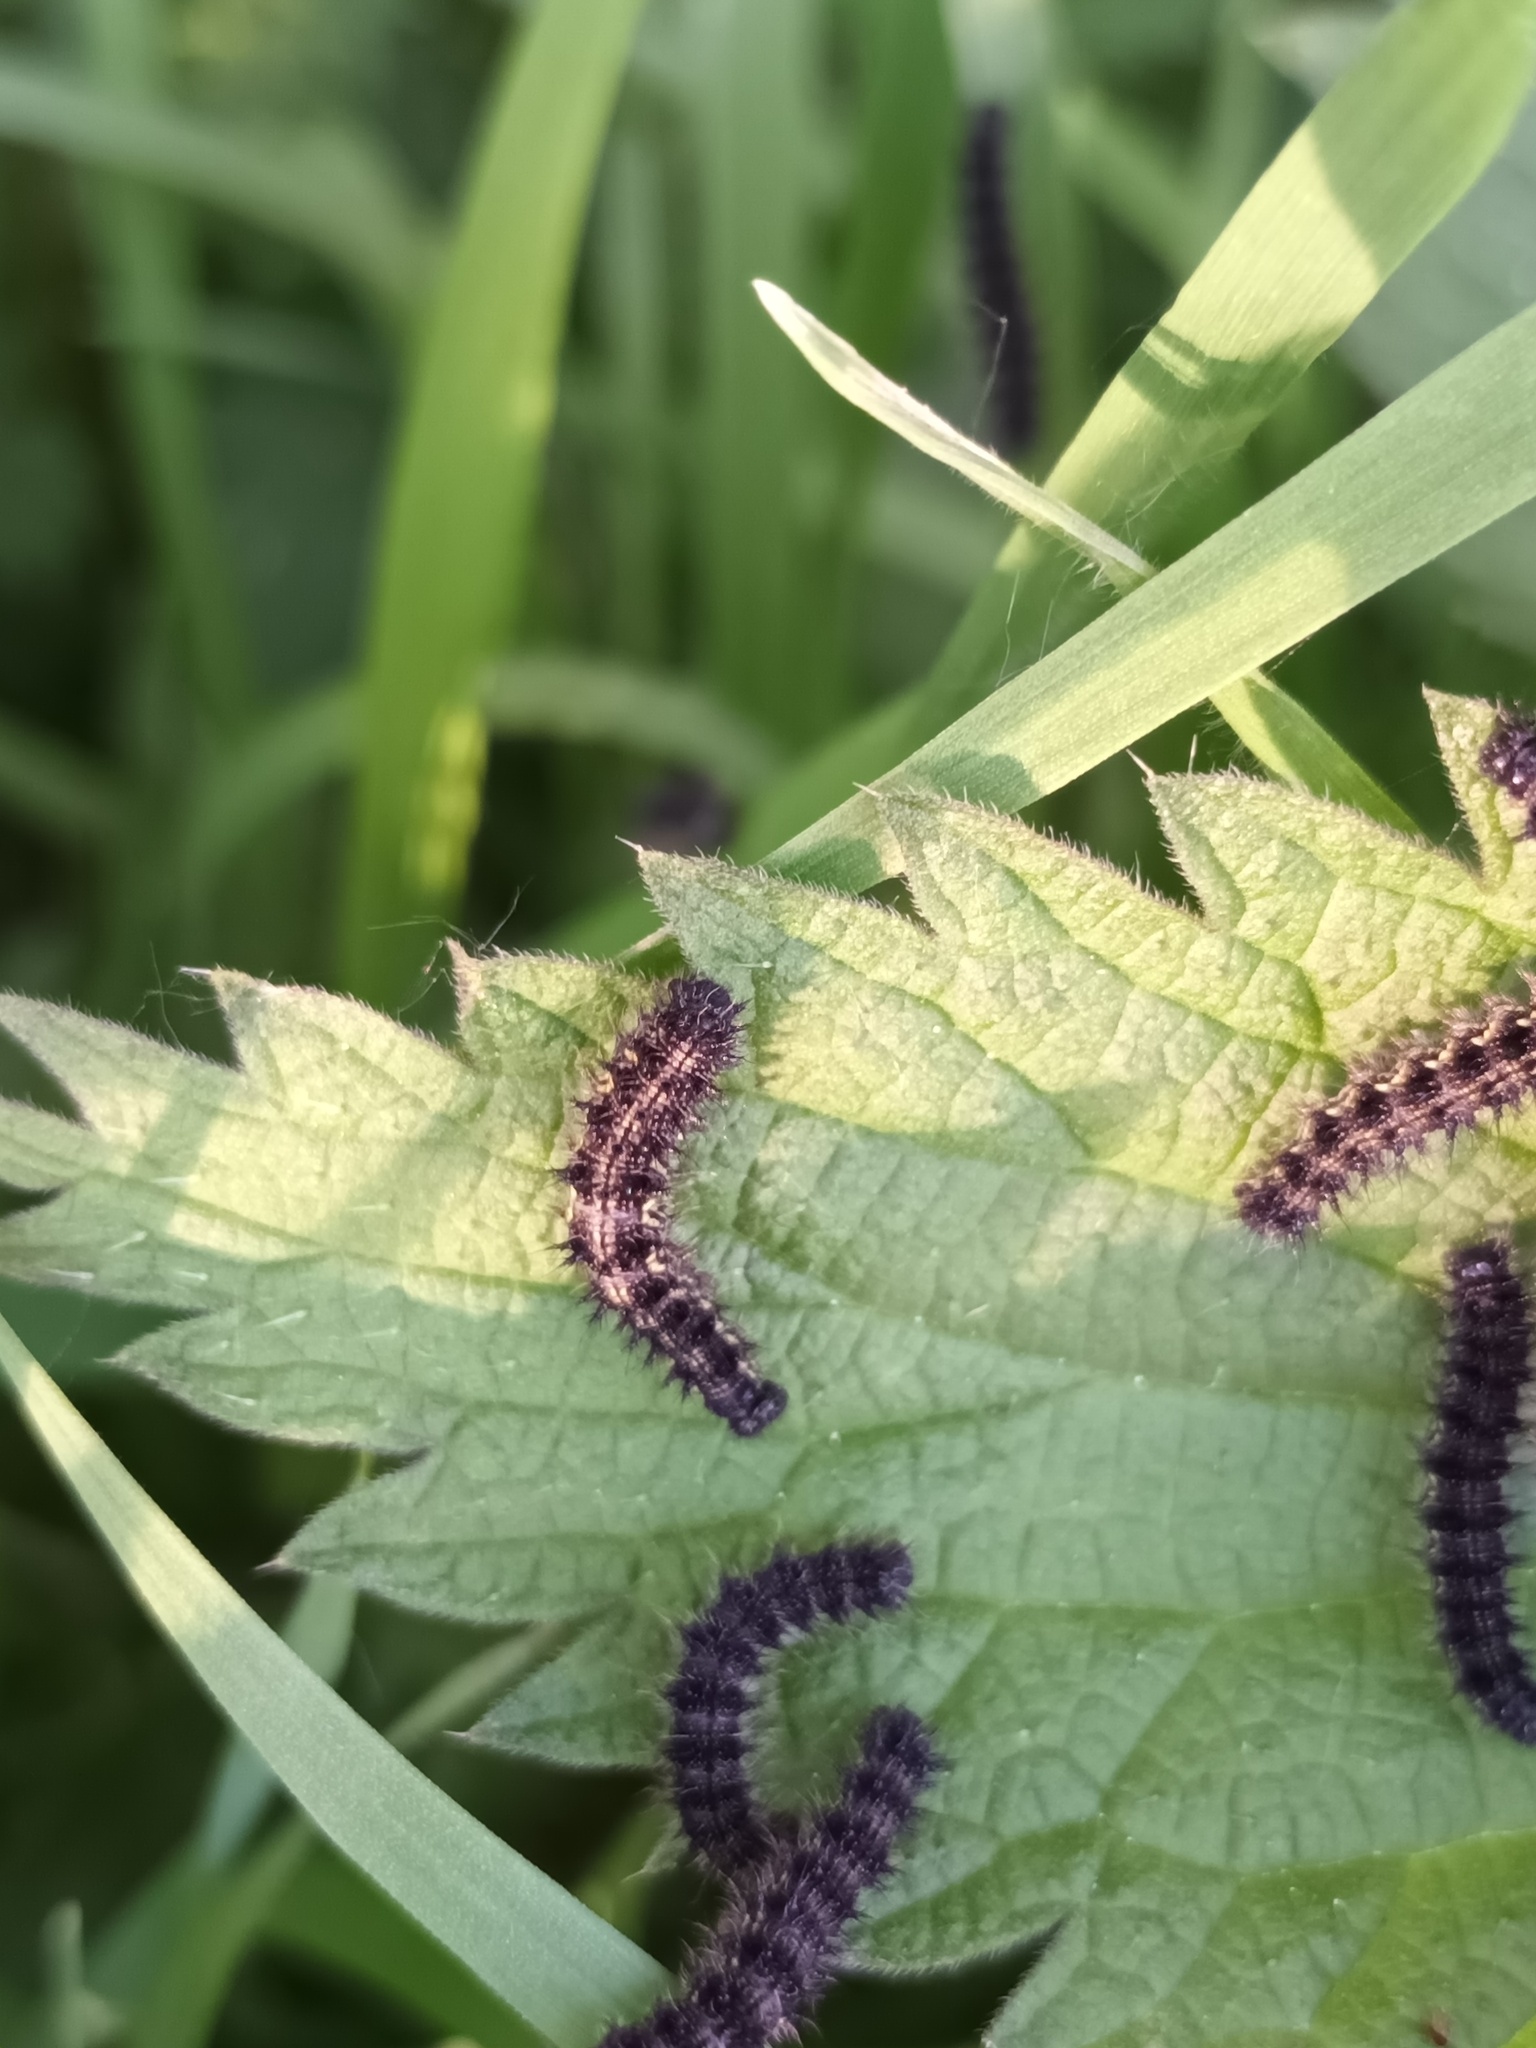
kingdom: Animalia
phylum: Arthropoda
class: Insecta
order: Lepidoptera
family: Nymphalidae
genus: Aglais
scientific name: Aglais urticae
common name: Small tortoiseshell
